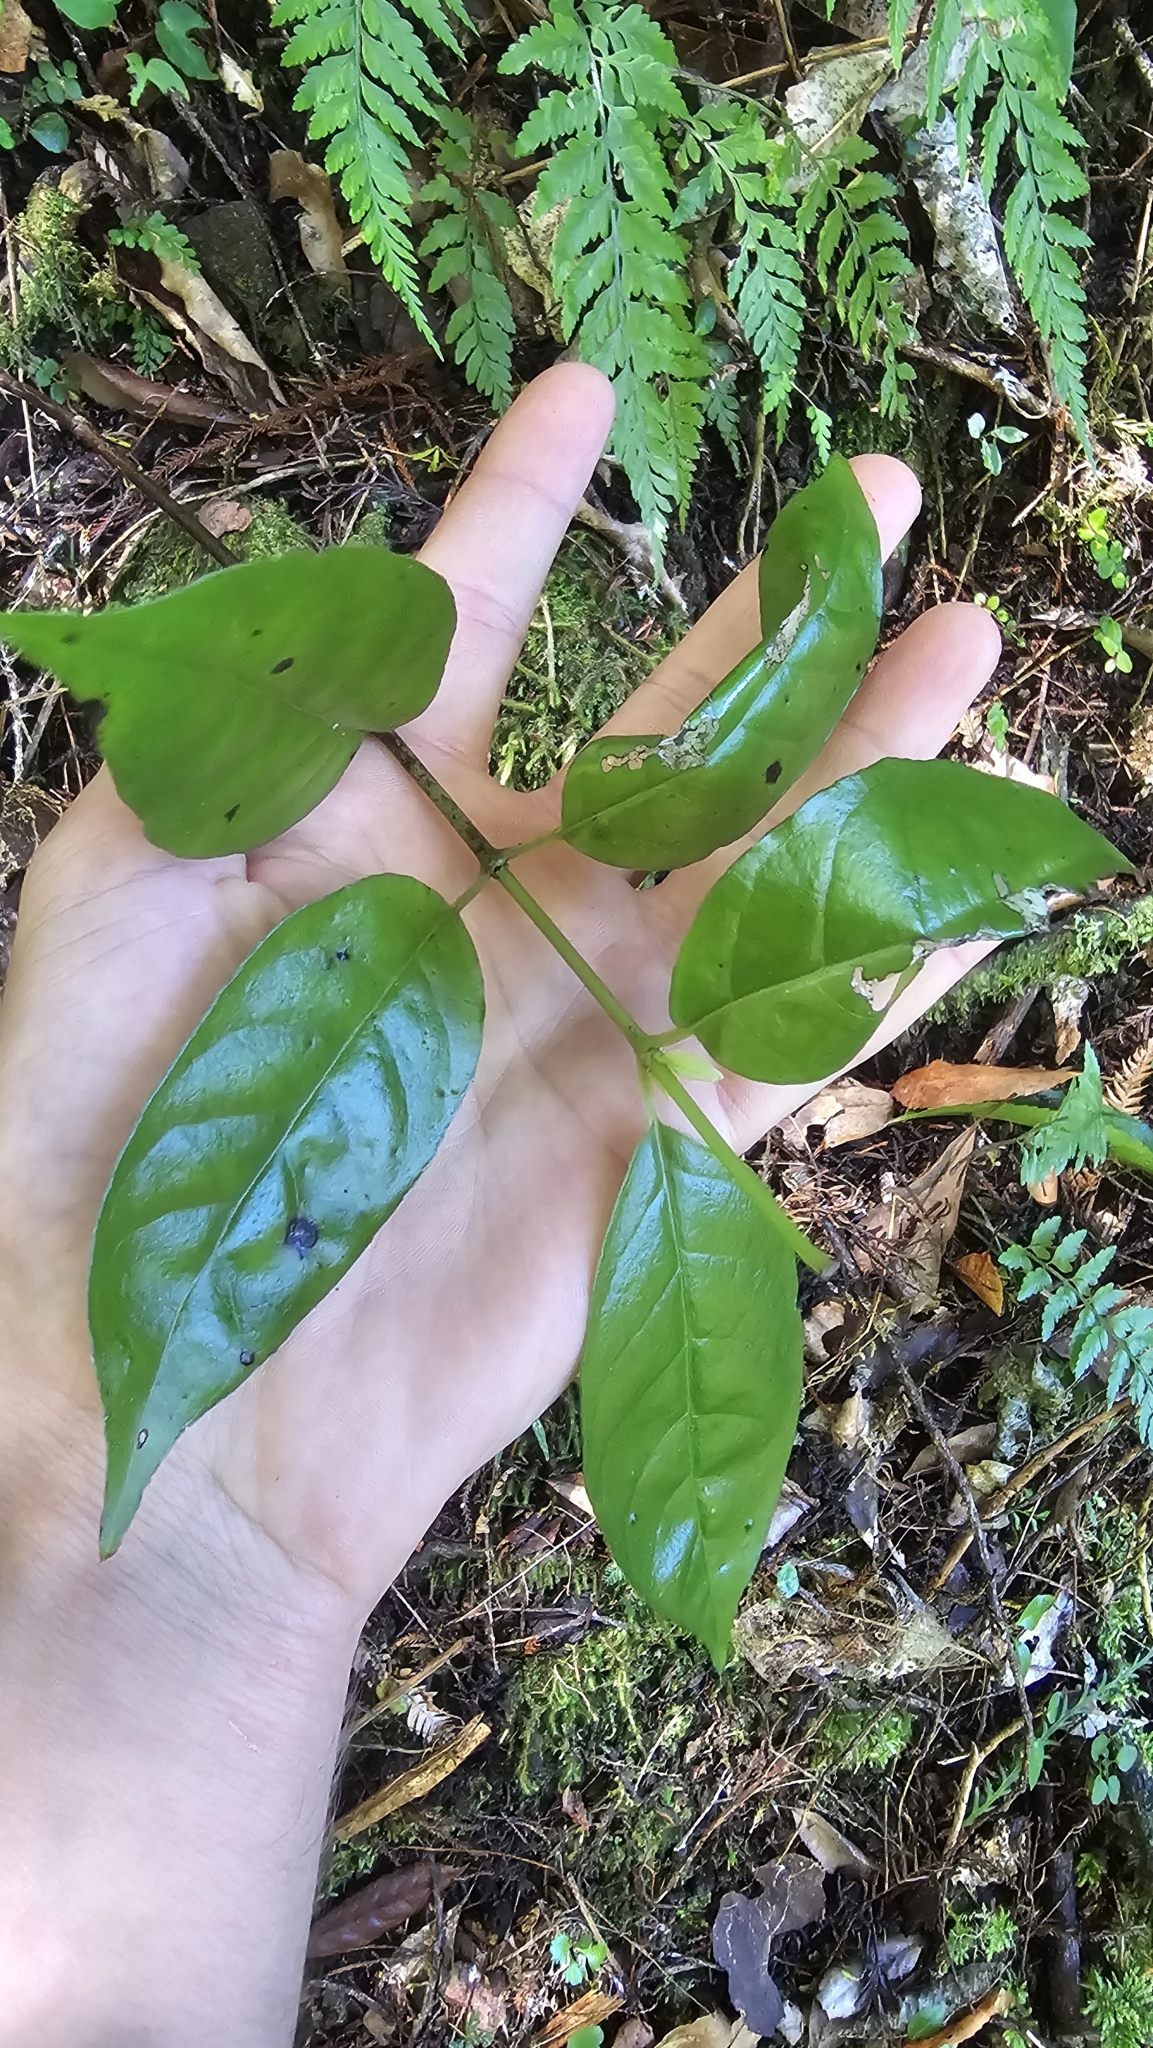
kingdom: Plantae
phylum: Tracheophyta
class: Magnoliopsida
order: Gentianales
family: Loganiaceae
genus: Geniostoma
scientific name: Geniostoma ligustrifolium
